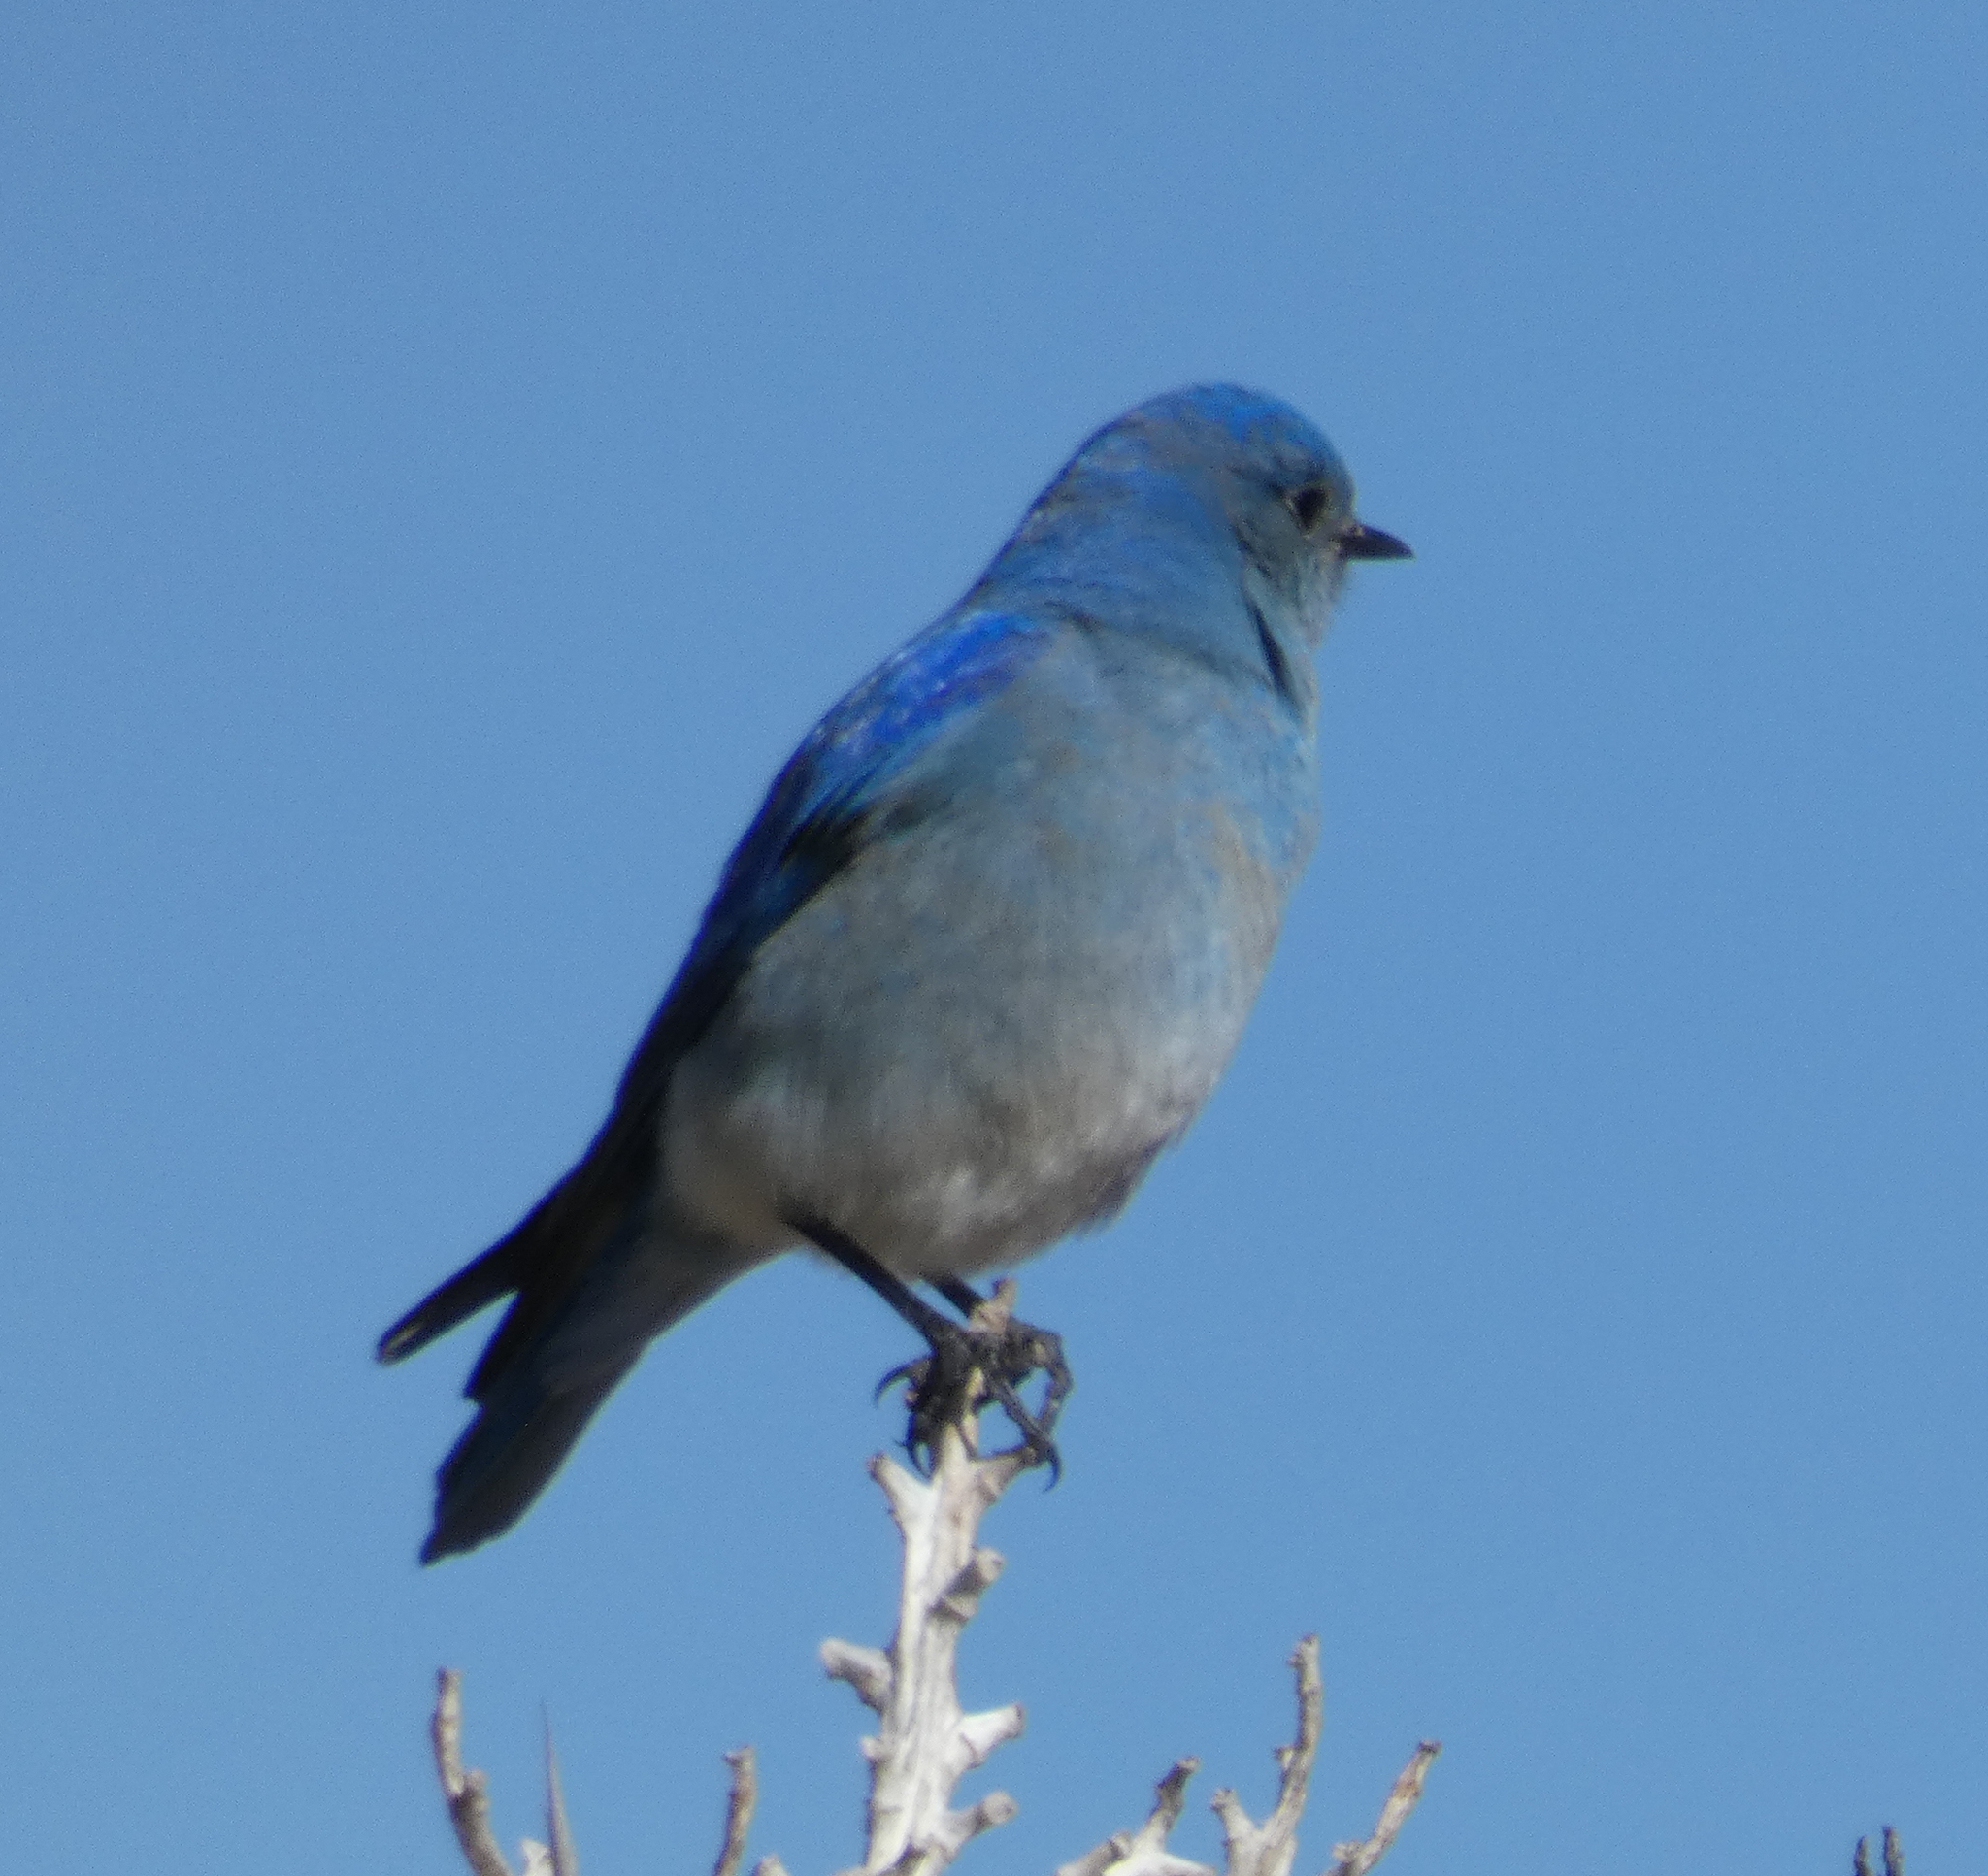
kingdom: Animalia
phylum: Chordata
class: Aves
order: Passeriformes
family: Turdidae
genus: Sialia
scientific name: Sialia currucoides
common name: Mountain bluebird
